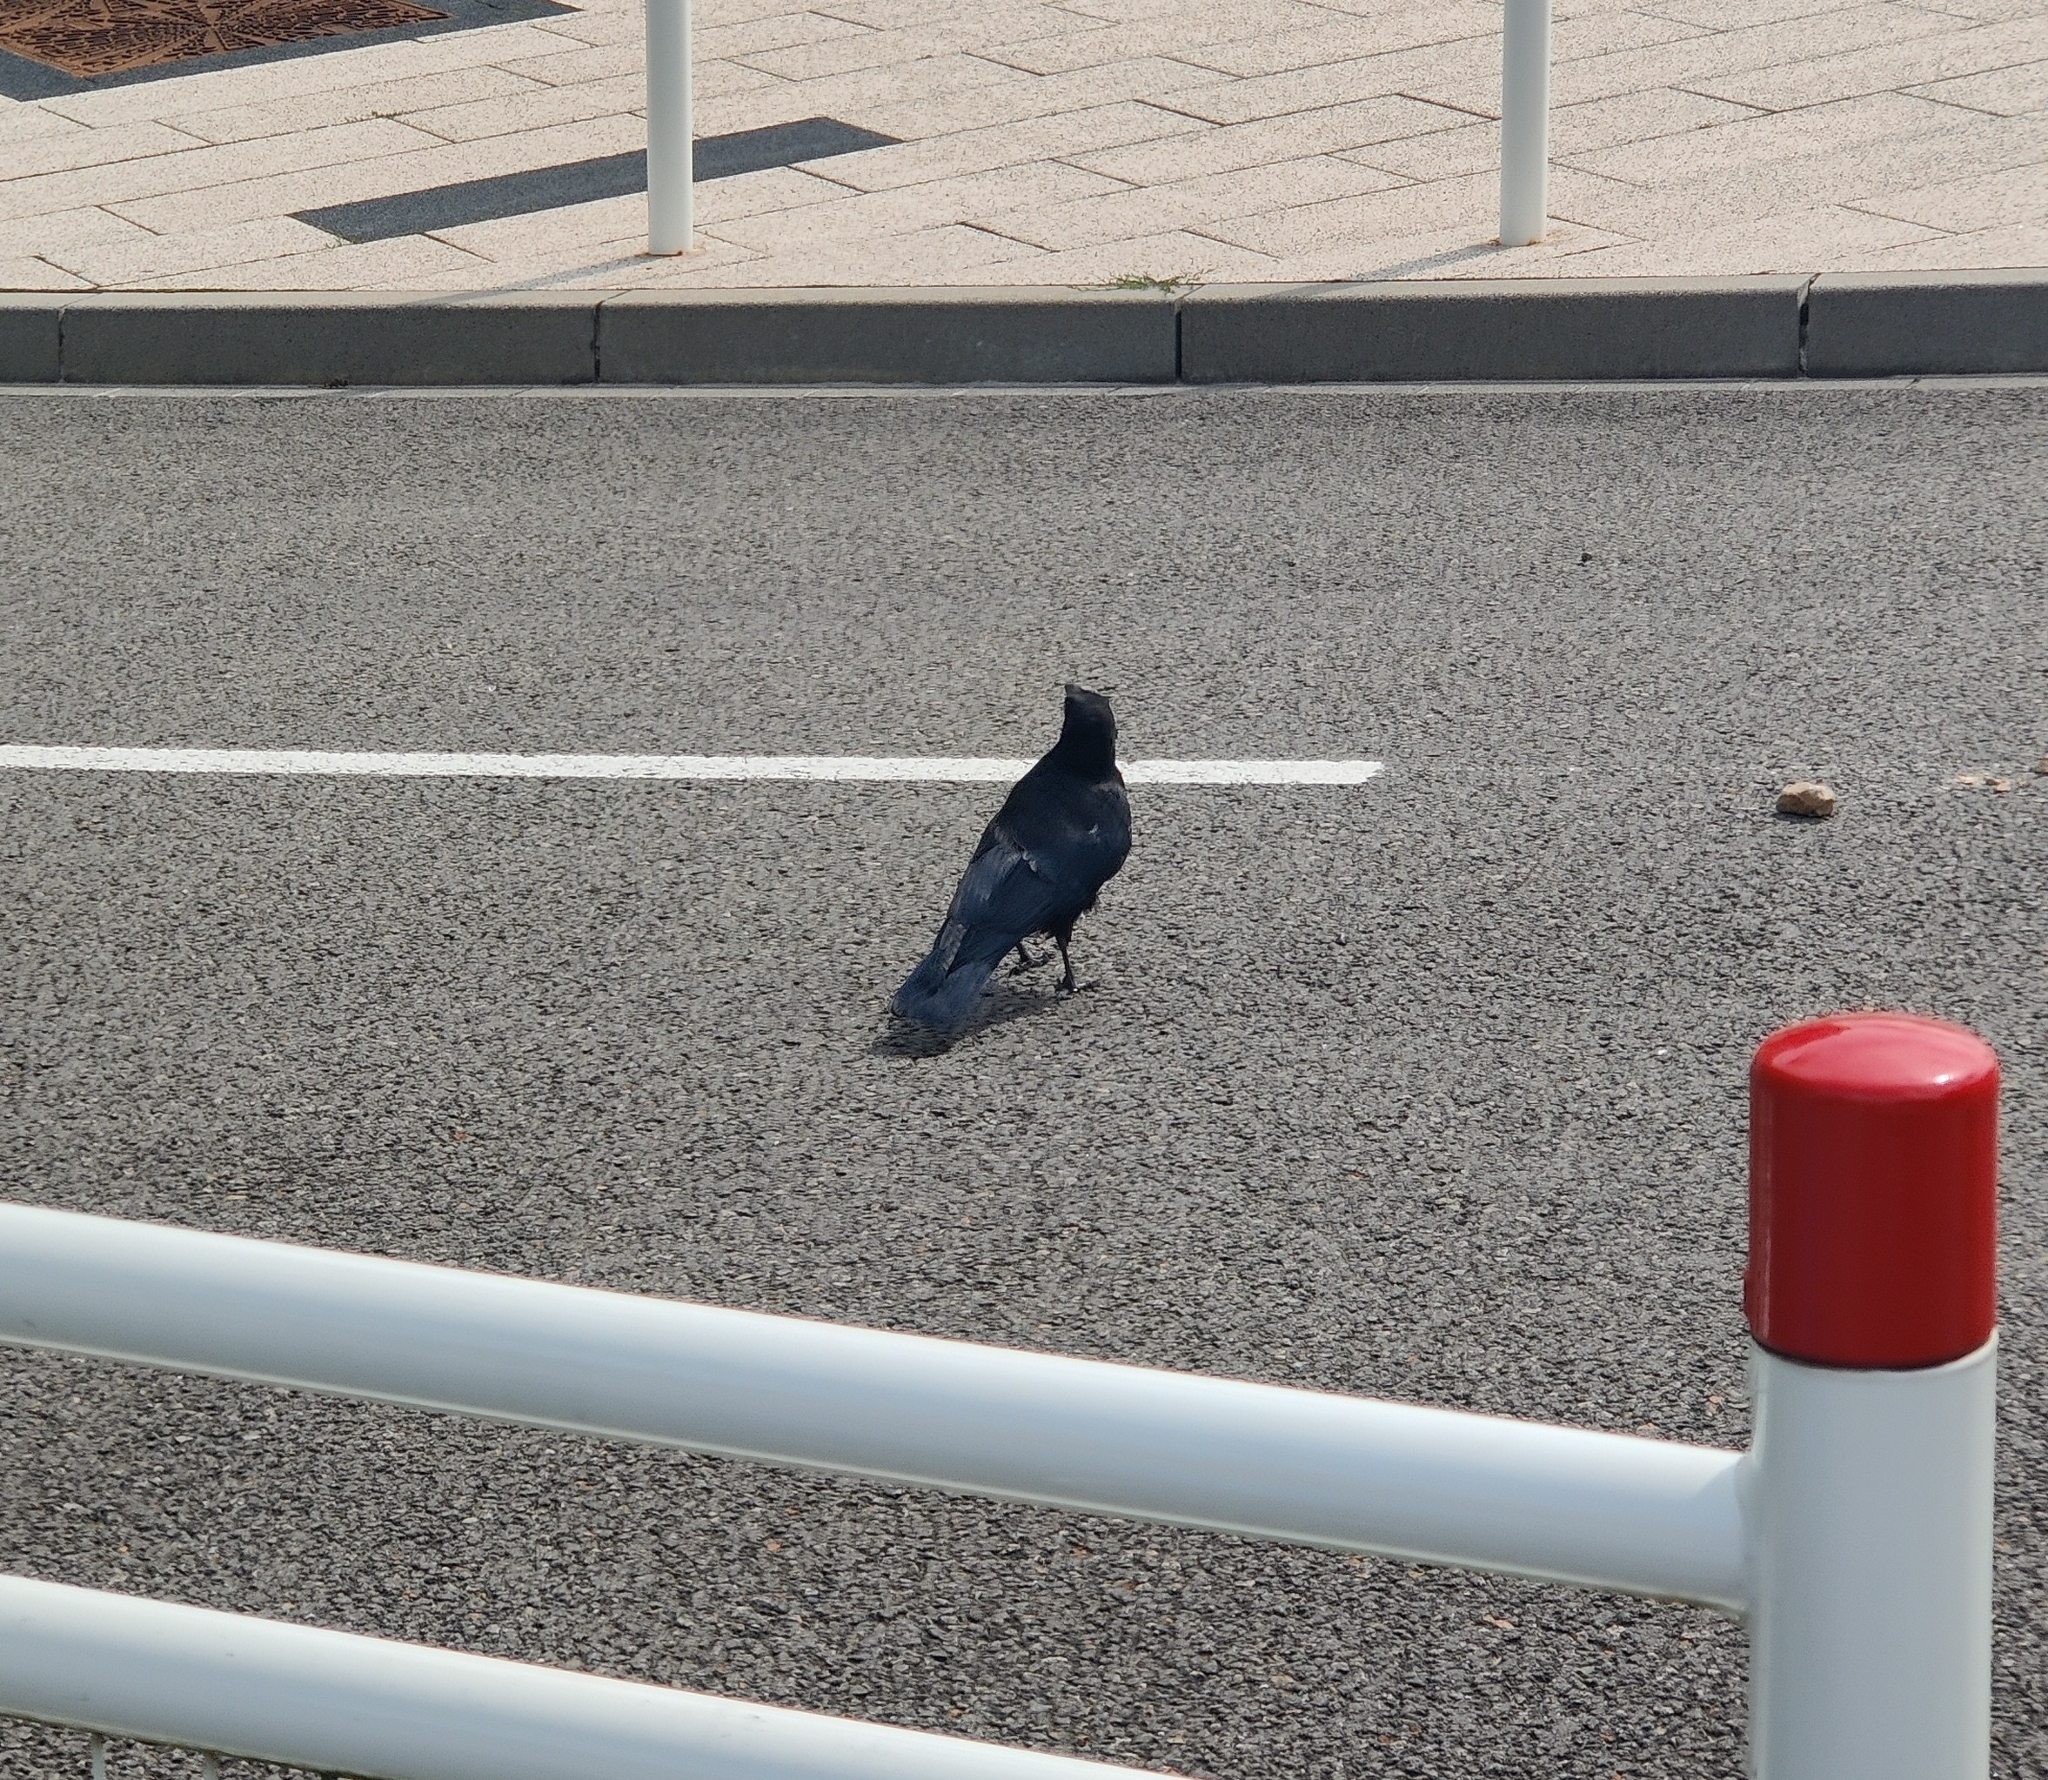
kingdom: Animalia
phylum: Chordata
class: Aves
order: Passeriformes
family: Corvidae
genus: Corvus
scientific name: Corvus corone
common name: Carrion crow
